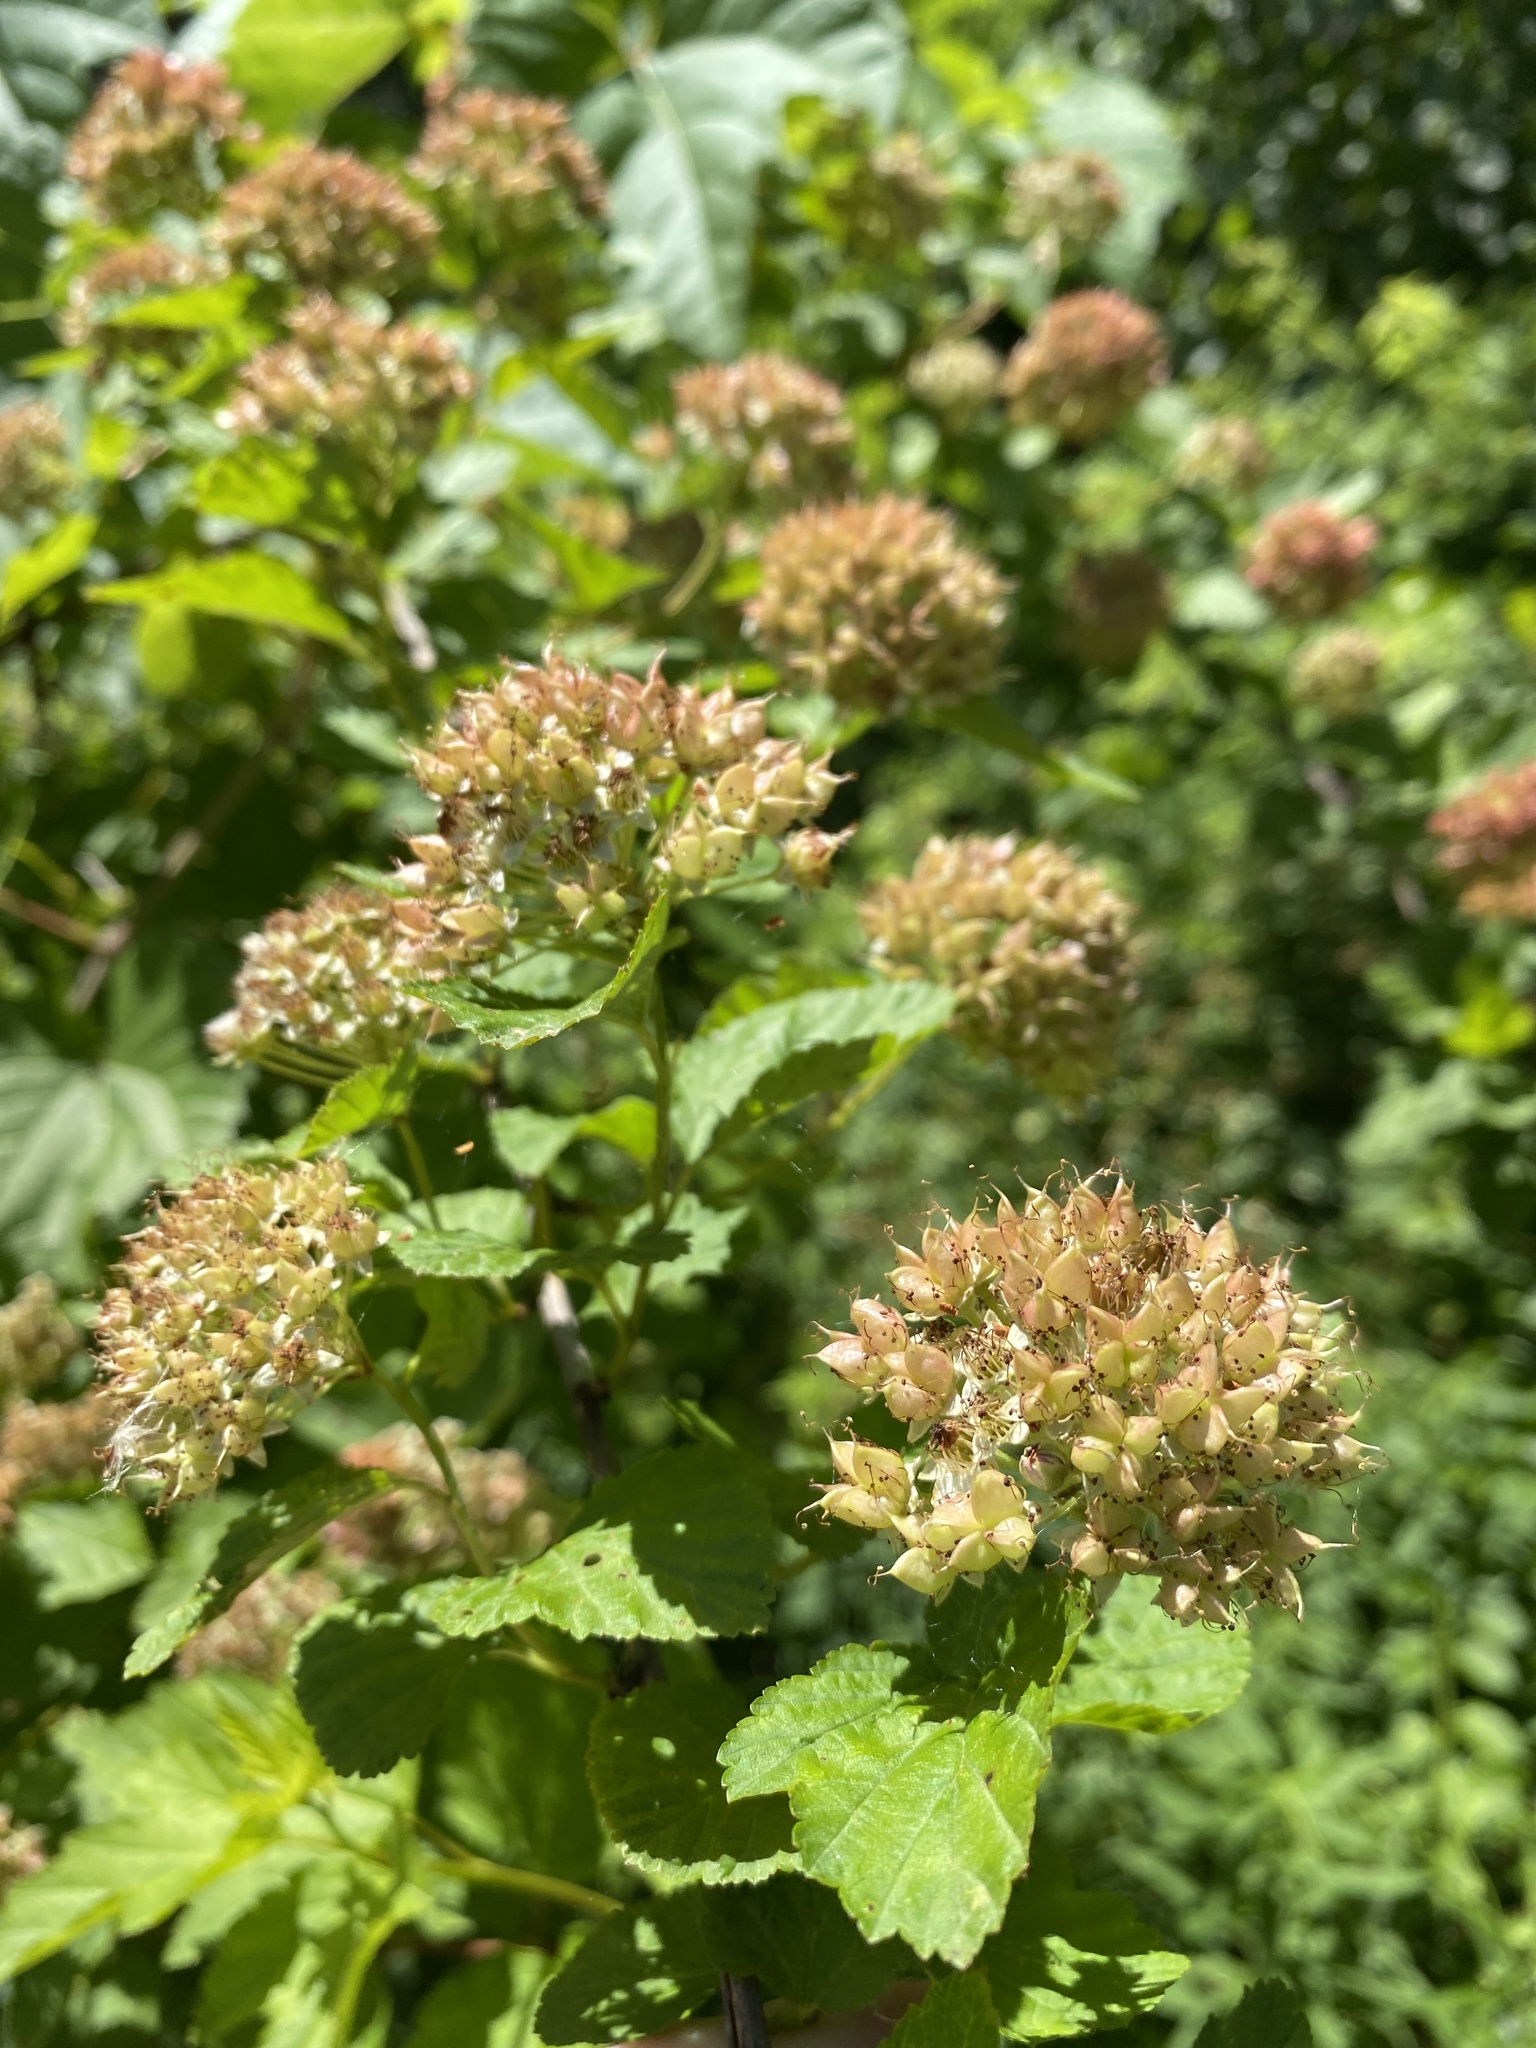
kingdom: Plantae
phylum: Tracheophyta
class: Magnoliopsida
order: Rosales
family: Rosaceae
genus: Physocarpus
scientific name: Physocarpus opulifolius
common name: Ninebark
